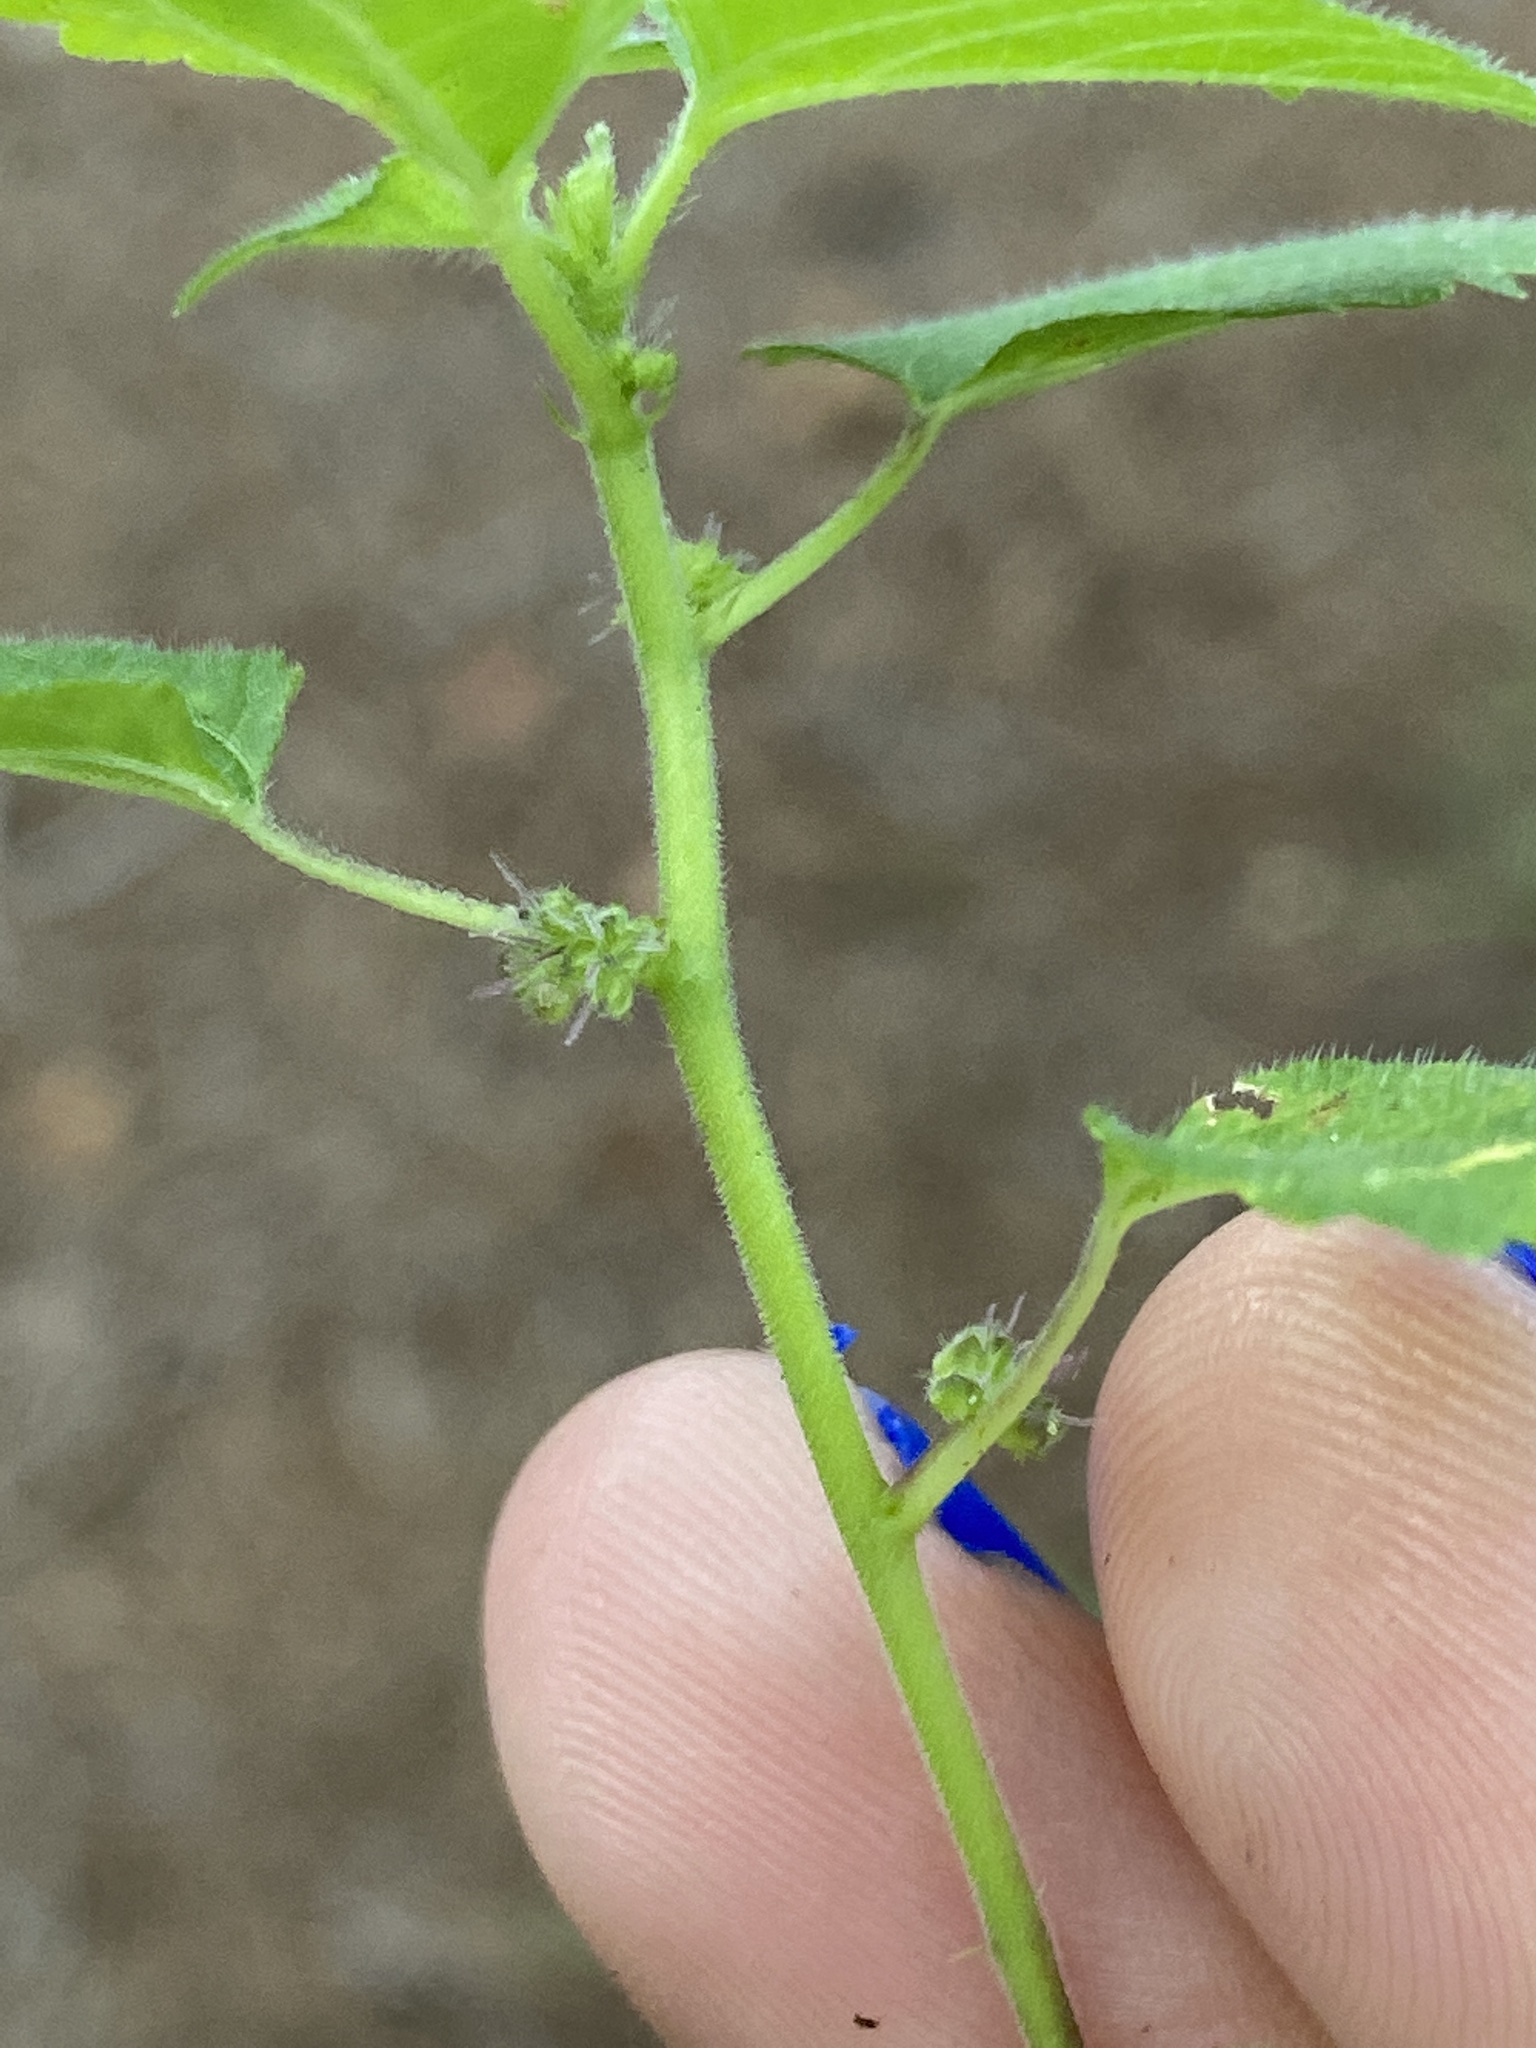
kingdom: Plantae
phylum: Tracheophyta
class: Magnoliopsida
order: Rosales
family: Moraceae
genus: Fatoua
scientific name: Fatoua villosa
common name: Hairy crabweed
